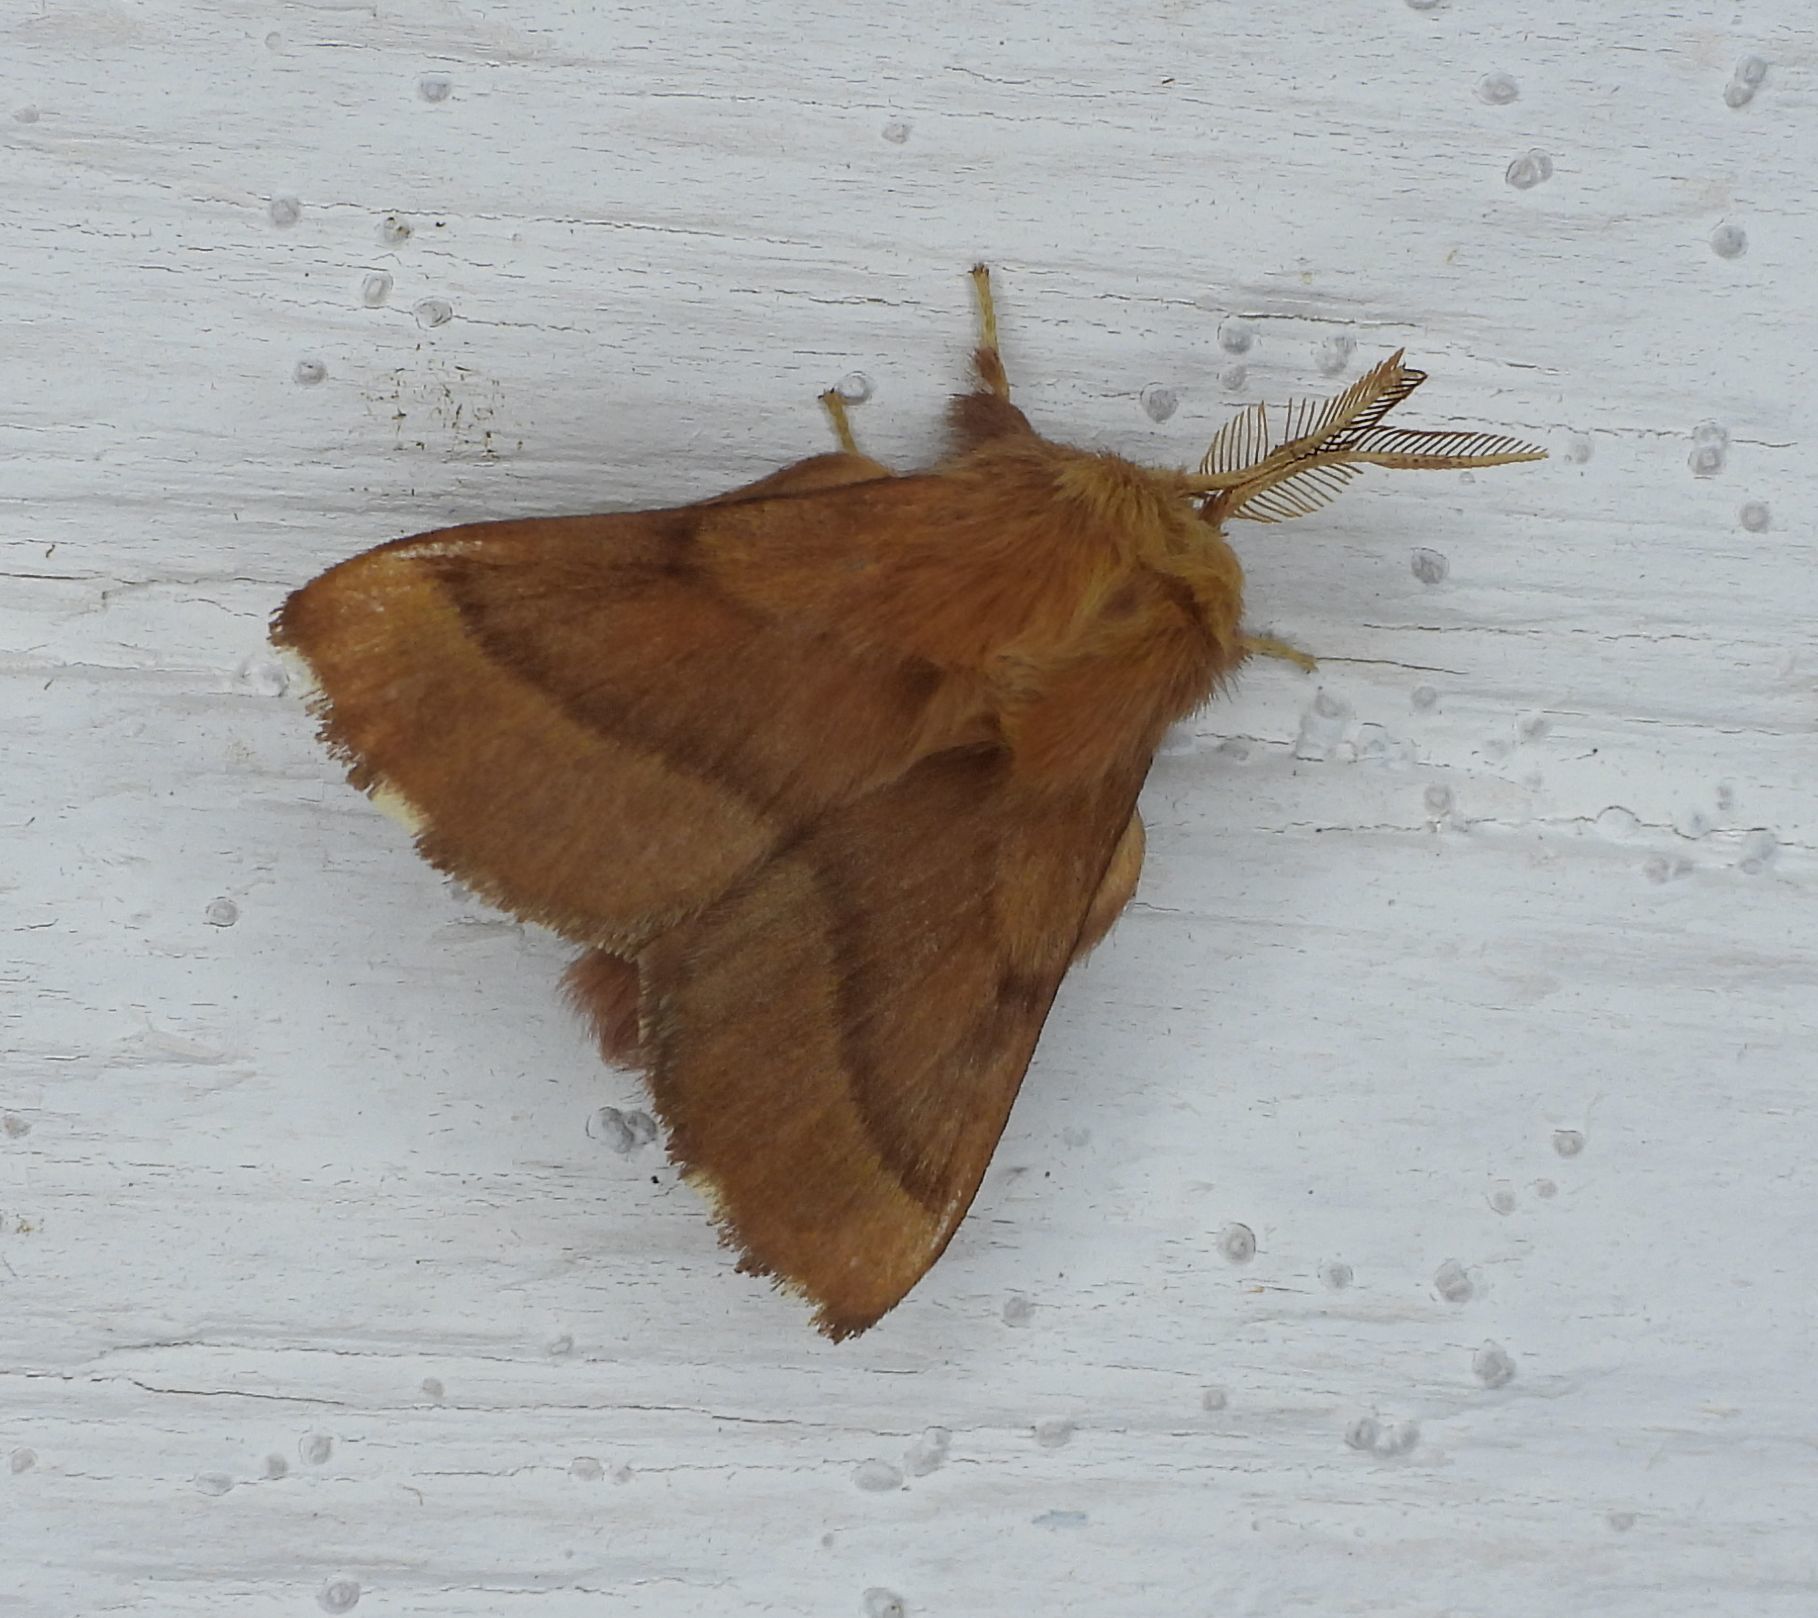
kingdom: Animalia
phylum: Arthropoda
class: Insecta
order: Lepidoptera
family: Lasiocampidae
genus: Malacosoma
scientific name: Malacosoma disstria
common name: Forest tent caterpillar
